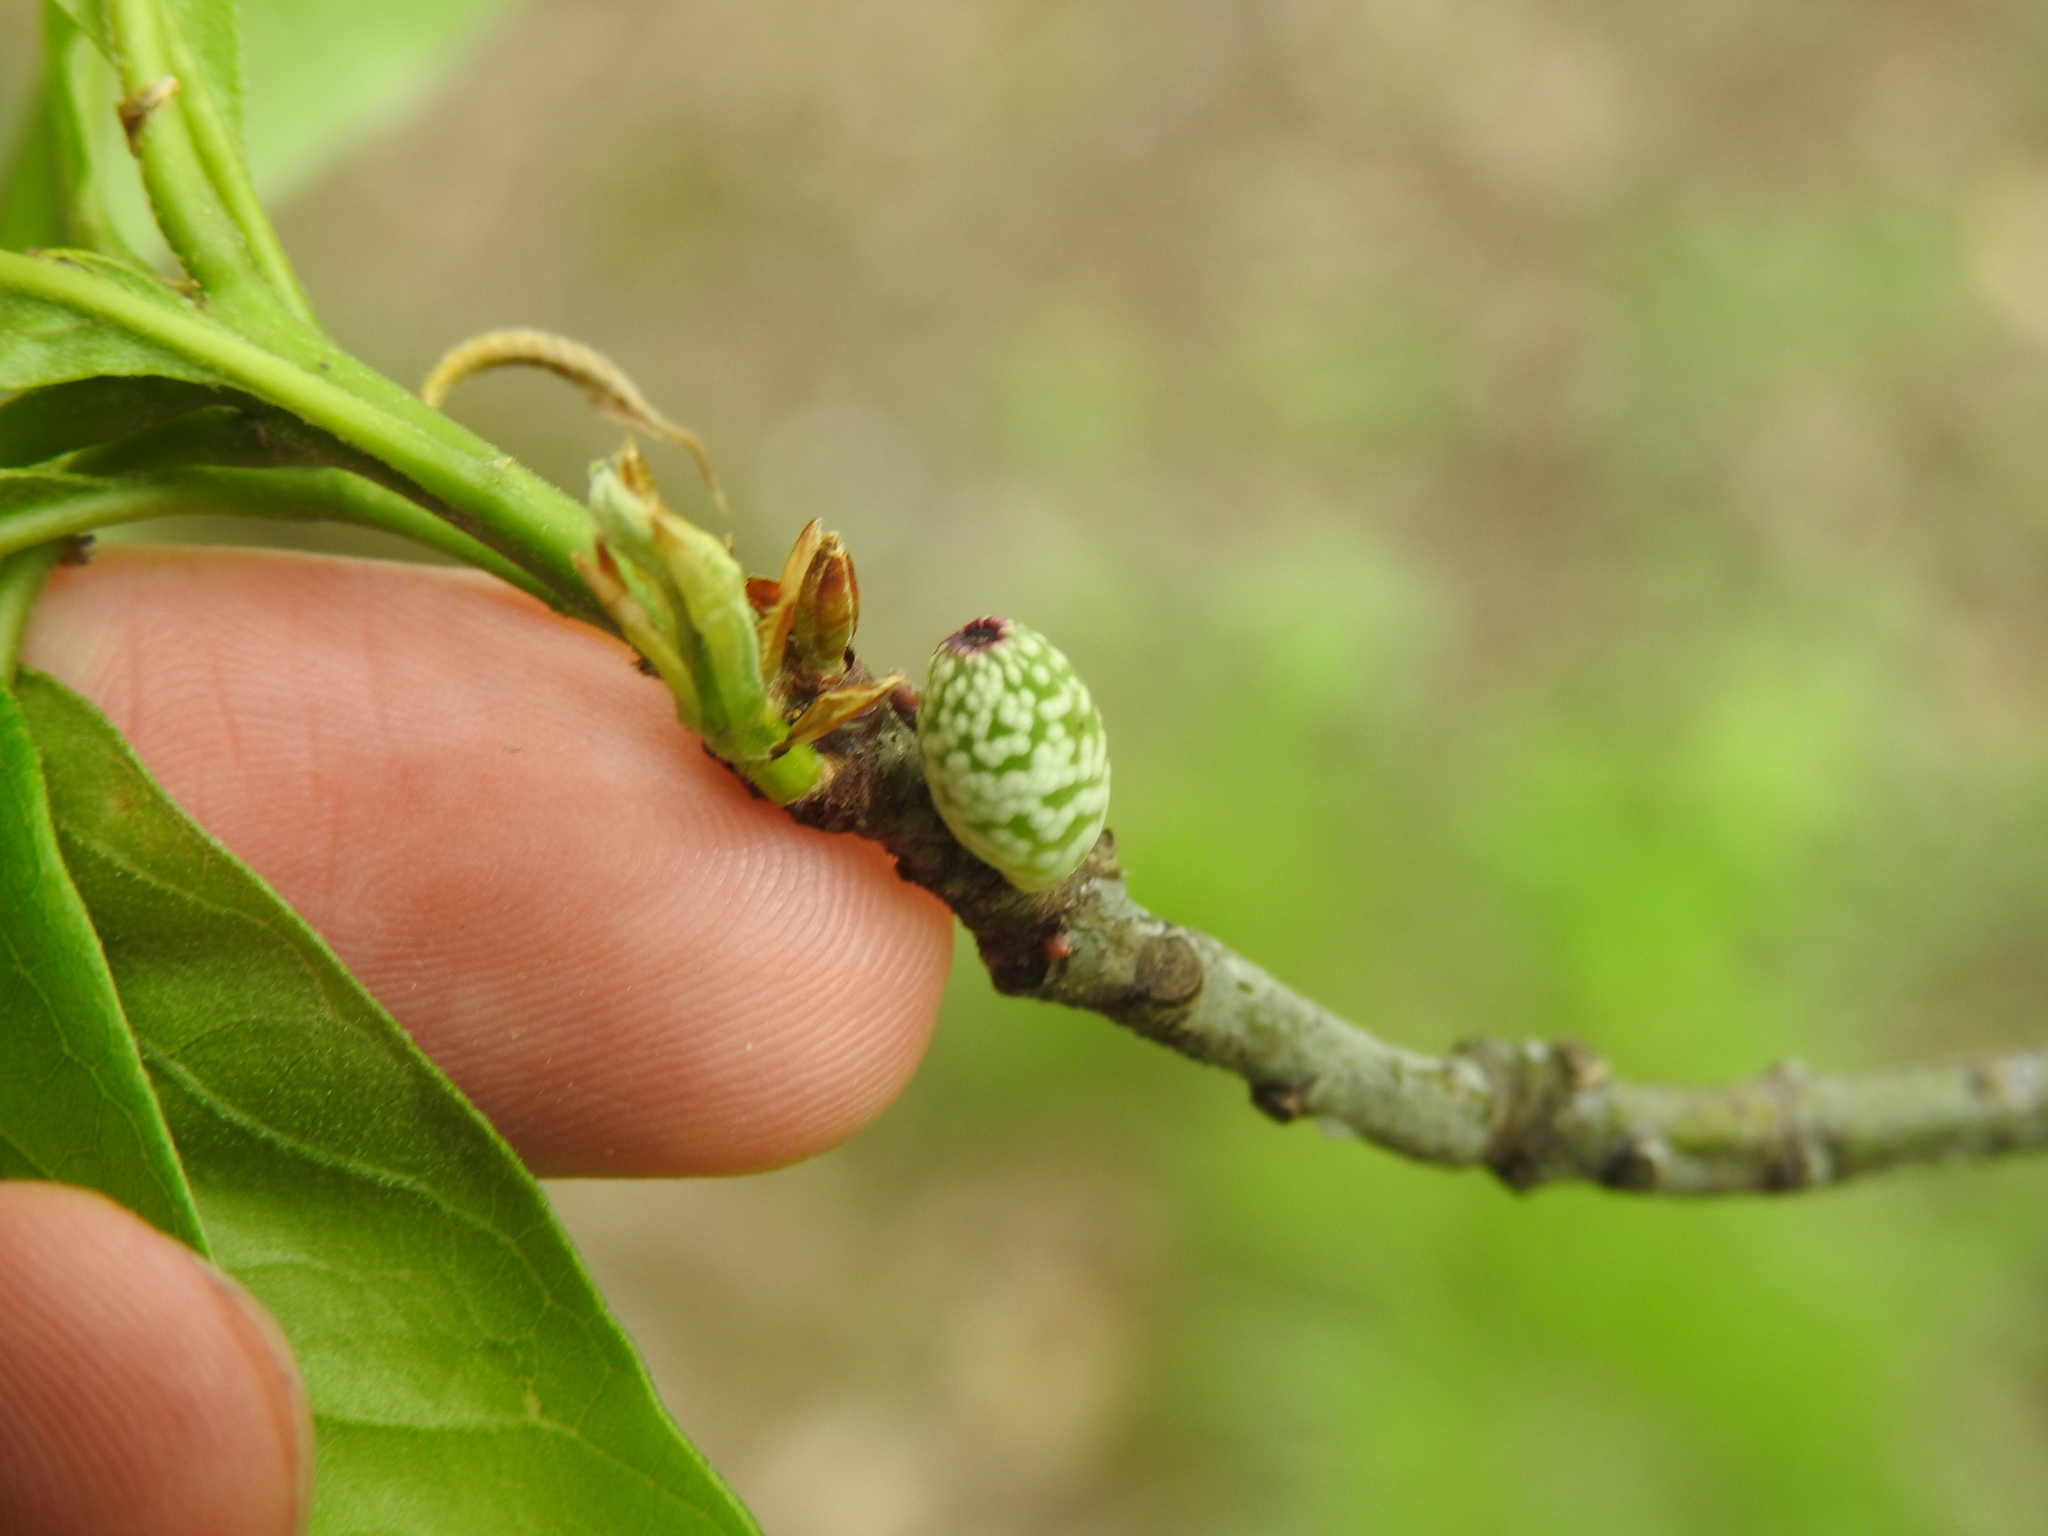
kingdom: Animalia
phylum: Arthropoda
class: Insecta
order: Hymenoptera
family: Cynipidae
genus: Amphibolips
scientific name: Amphibolips
